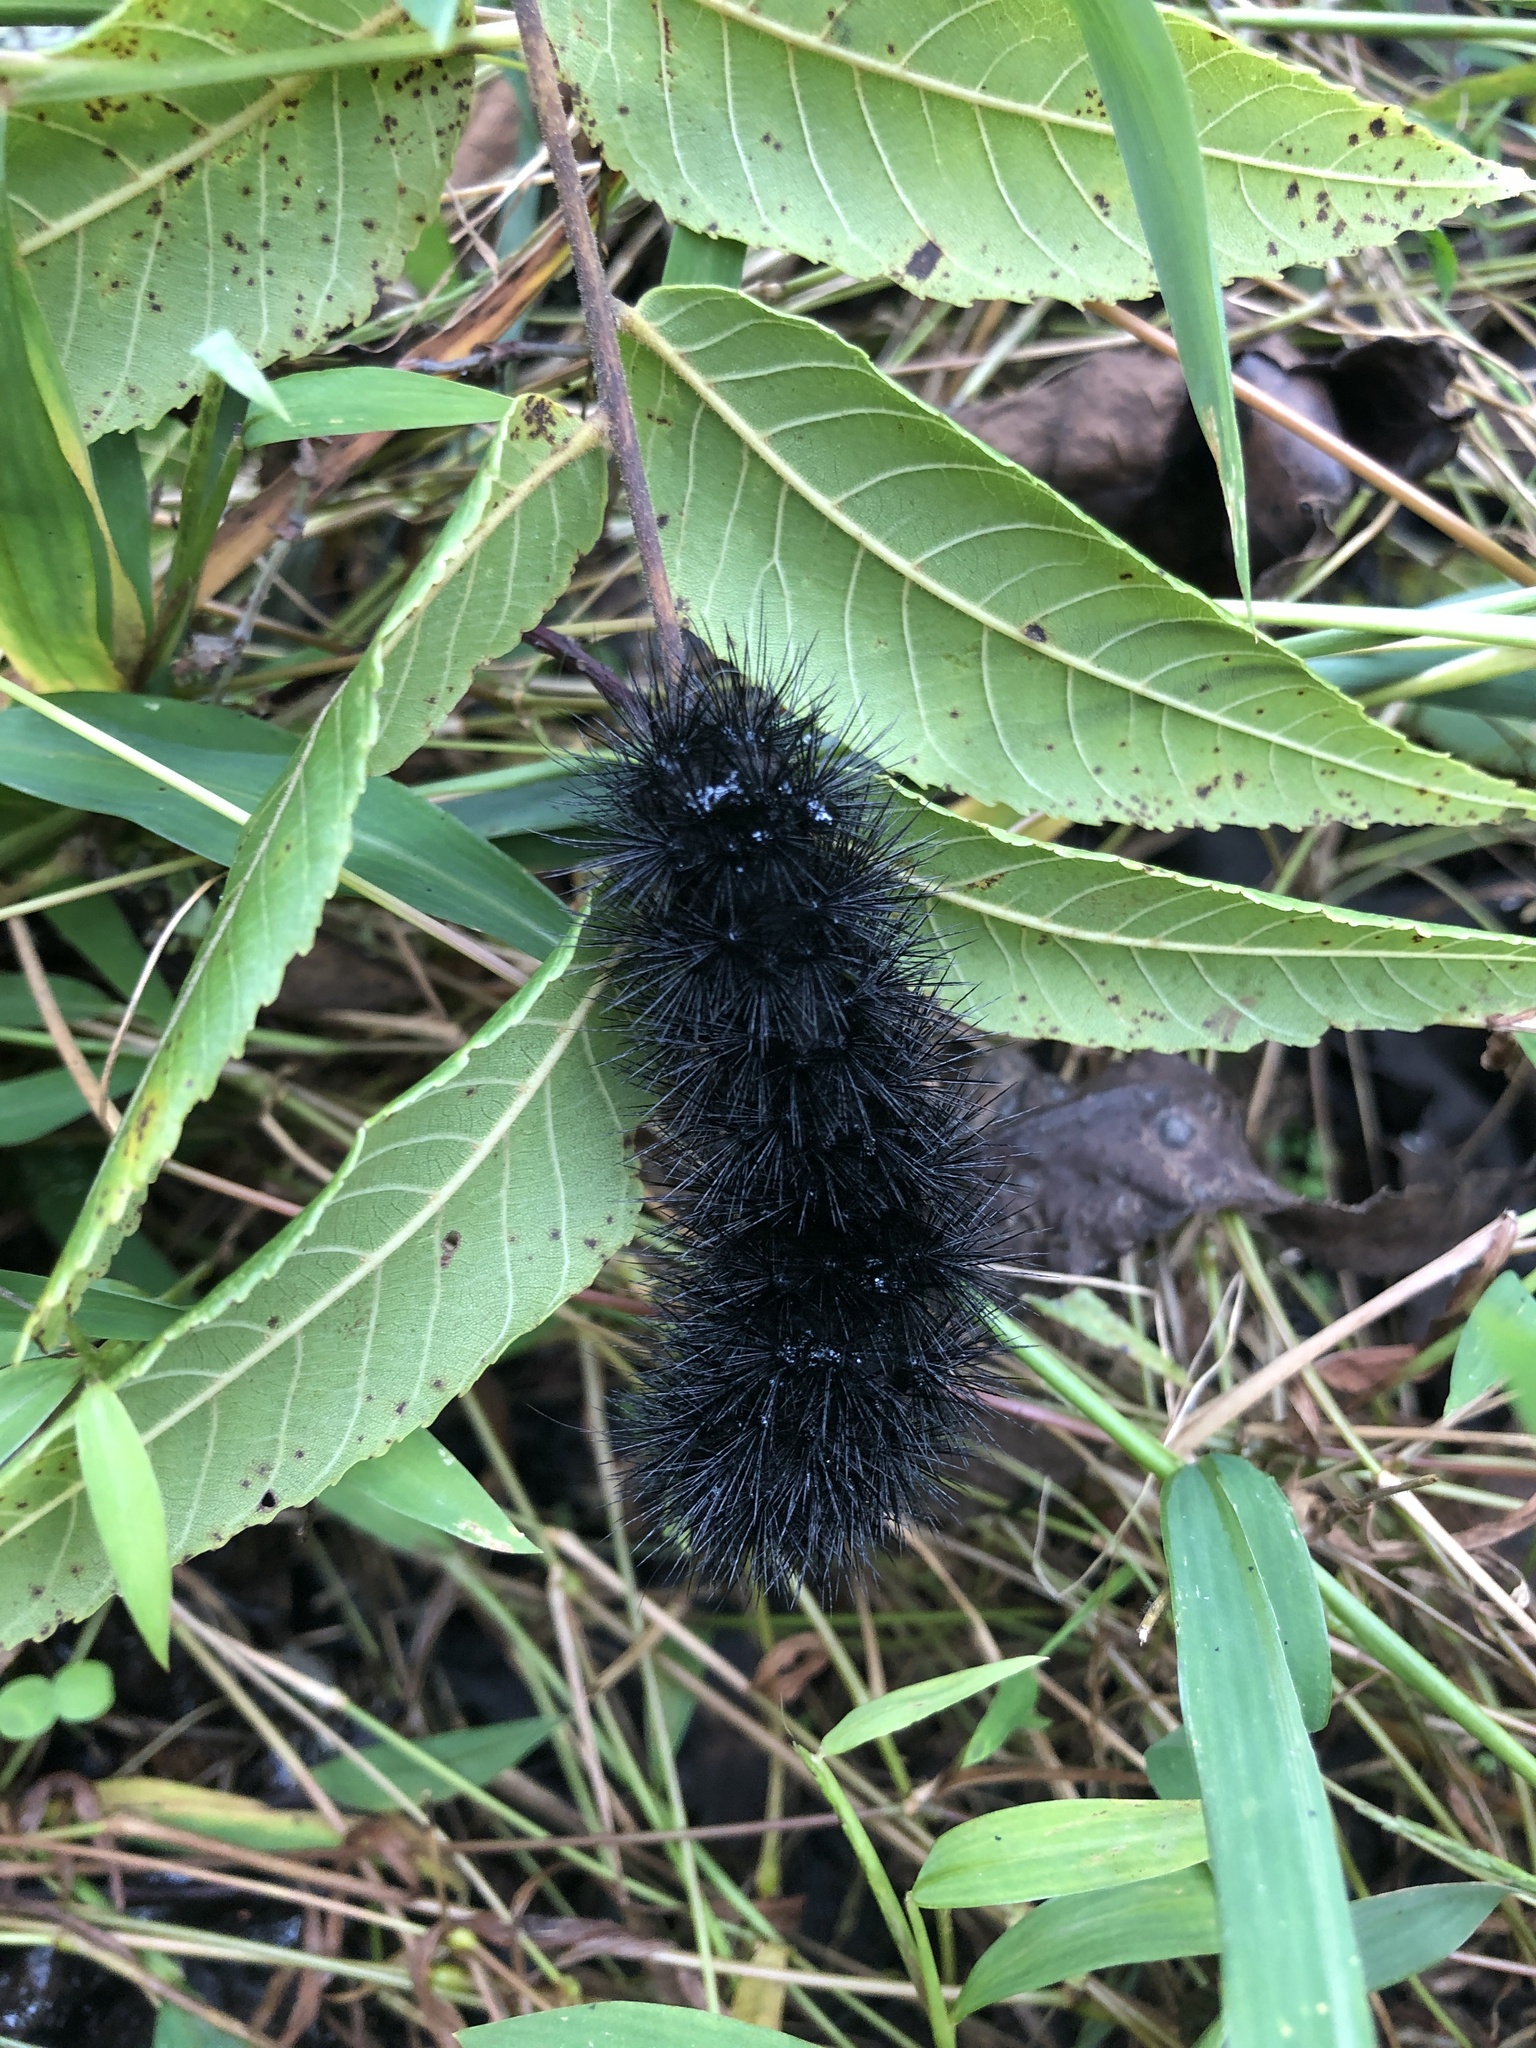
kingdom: Animalia
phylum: Arthropoda
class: Insecta
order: Lepidoptera
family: Erebidae
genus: Hypercompe
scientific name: Hypercompe scribonia
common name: Giant leopard moth
